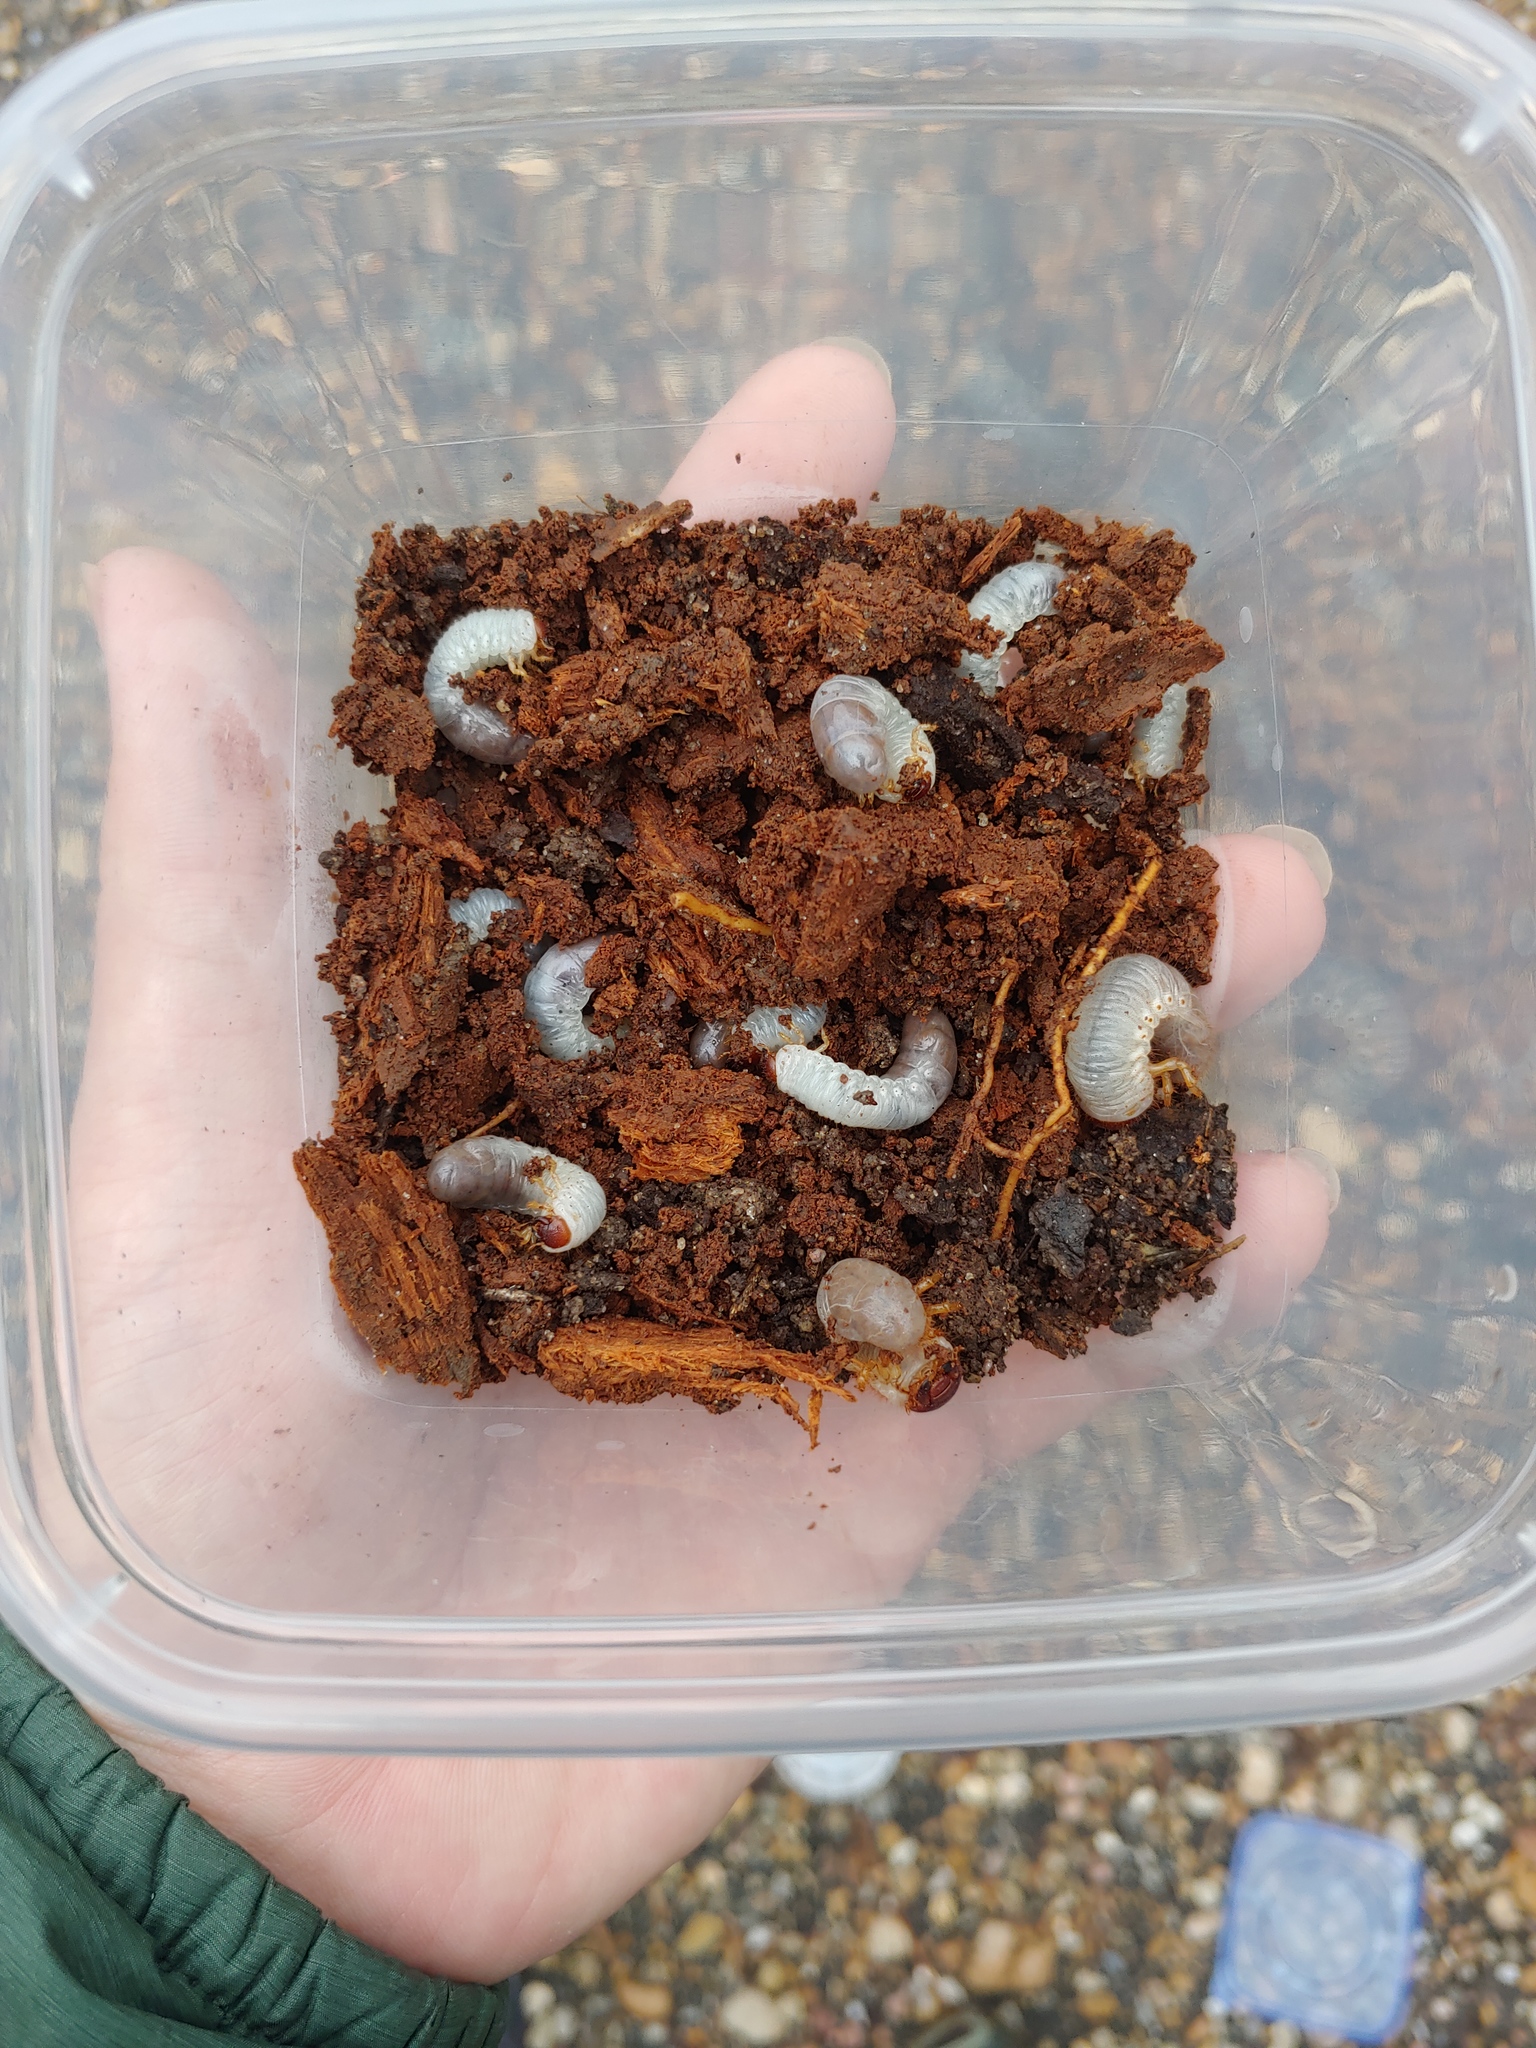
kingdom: Animalia
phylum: Arthropoda
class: Insecta
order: Coleoptera
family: Scarabaeidae
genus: Dynastes
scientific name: Dynastes tityus
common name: Eastern hercules beetle
